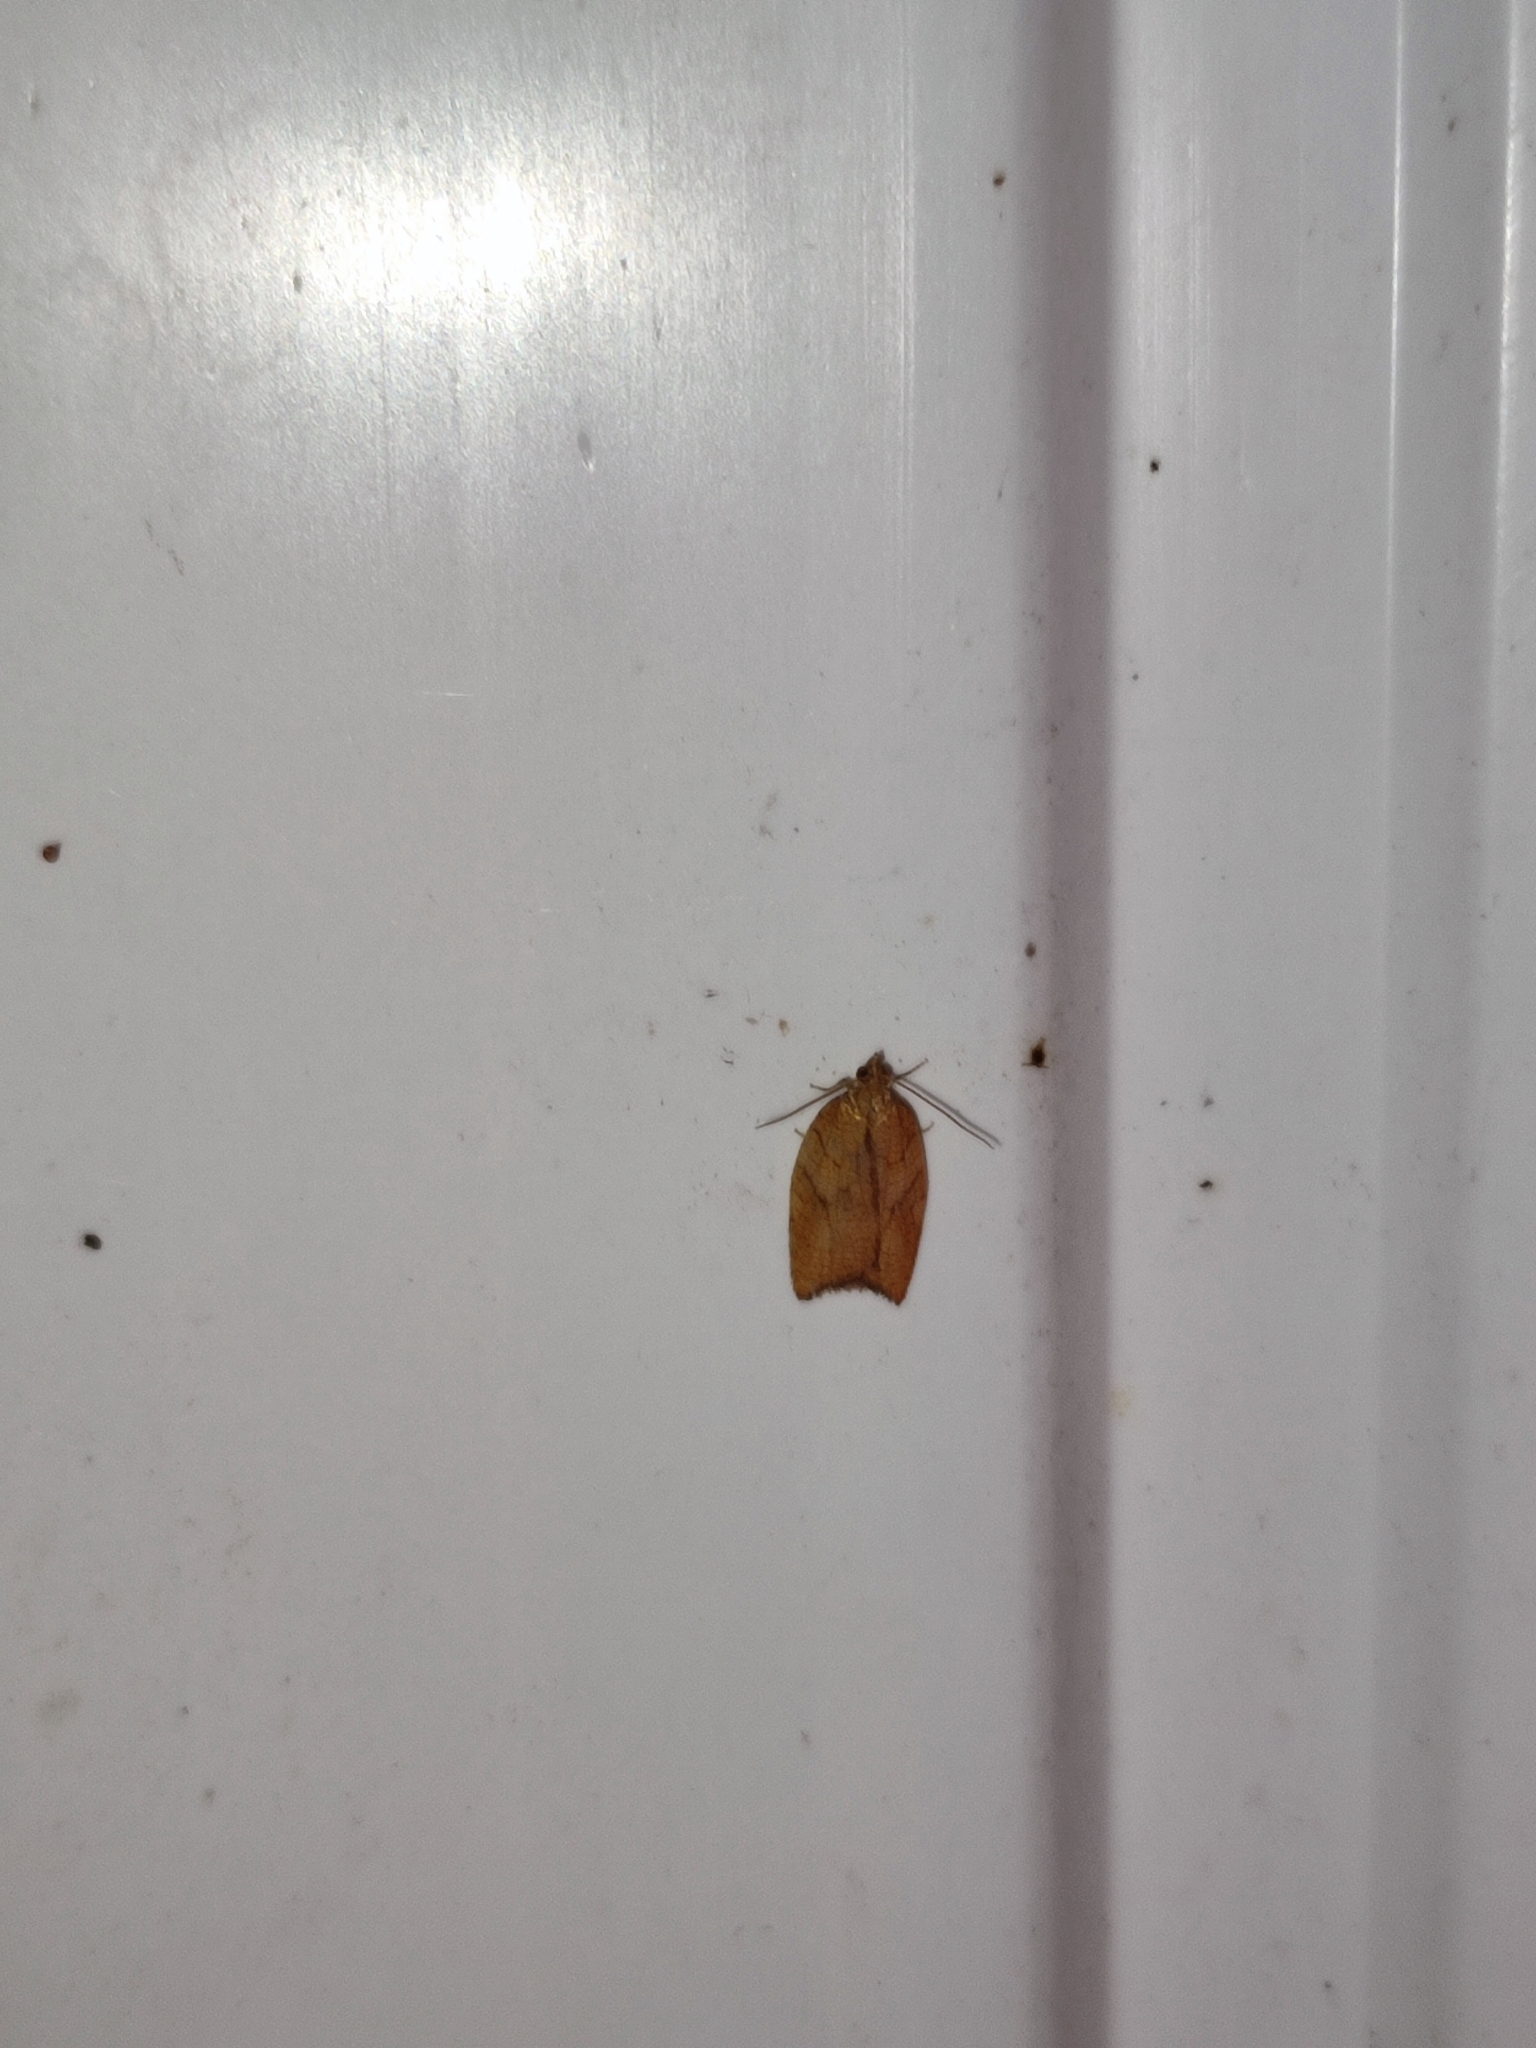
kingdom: Animalia
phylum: Arthropoda
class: Insecta
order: Lepidoptera
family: Tortricidae
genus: Acleris
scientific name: Acleris rhombana
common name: Tortricid moth
